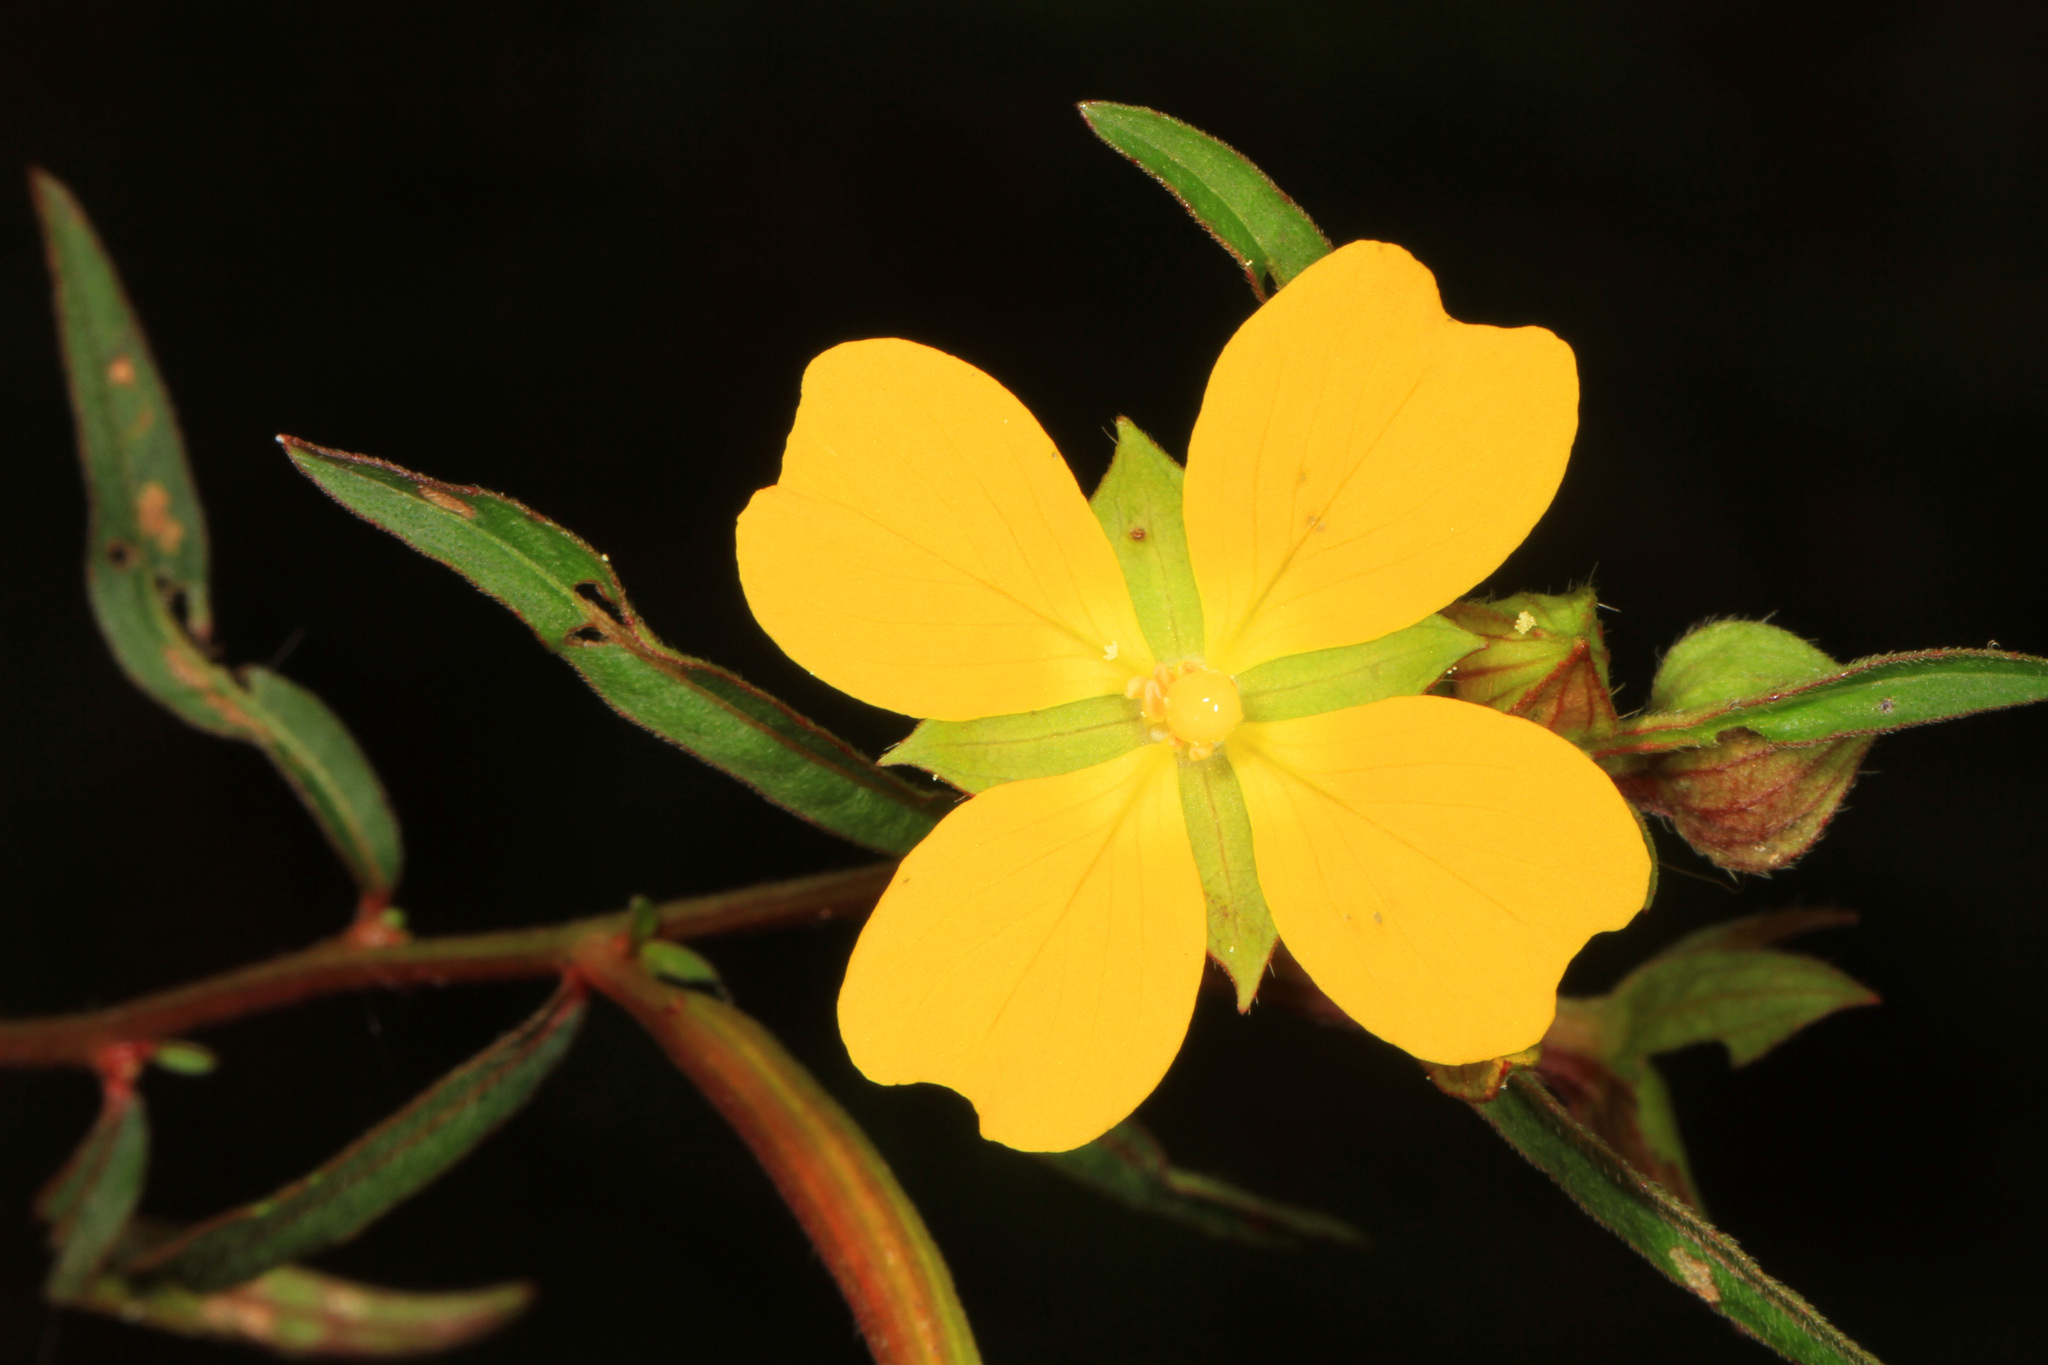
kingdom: Plantae
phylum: Tracheophyta
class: Magnoliopsida
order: Myrtales
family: Onagraceae
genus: Ludwigia
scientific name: Ludwigia octovalvis
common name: Water-primrose
